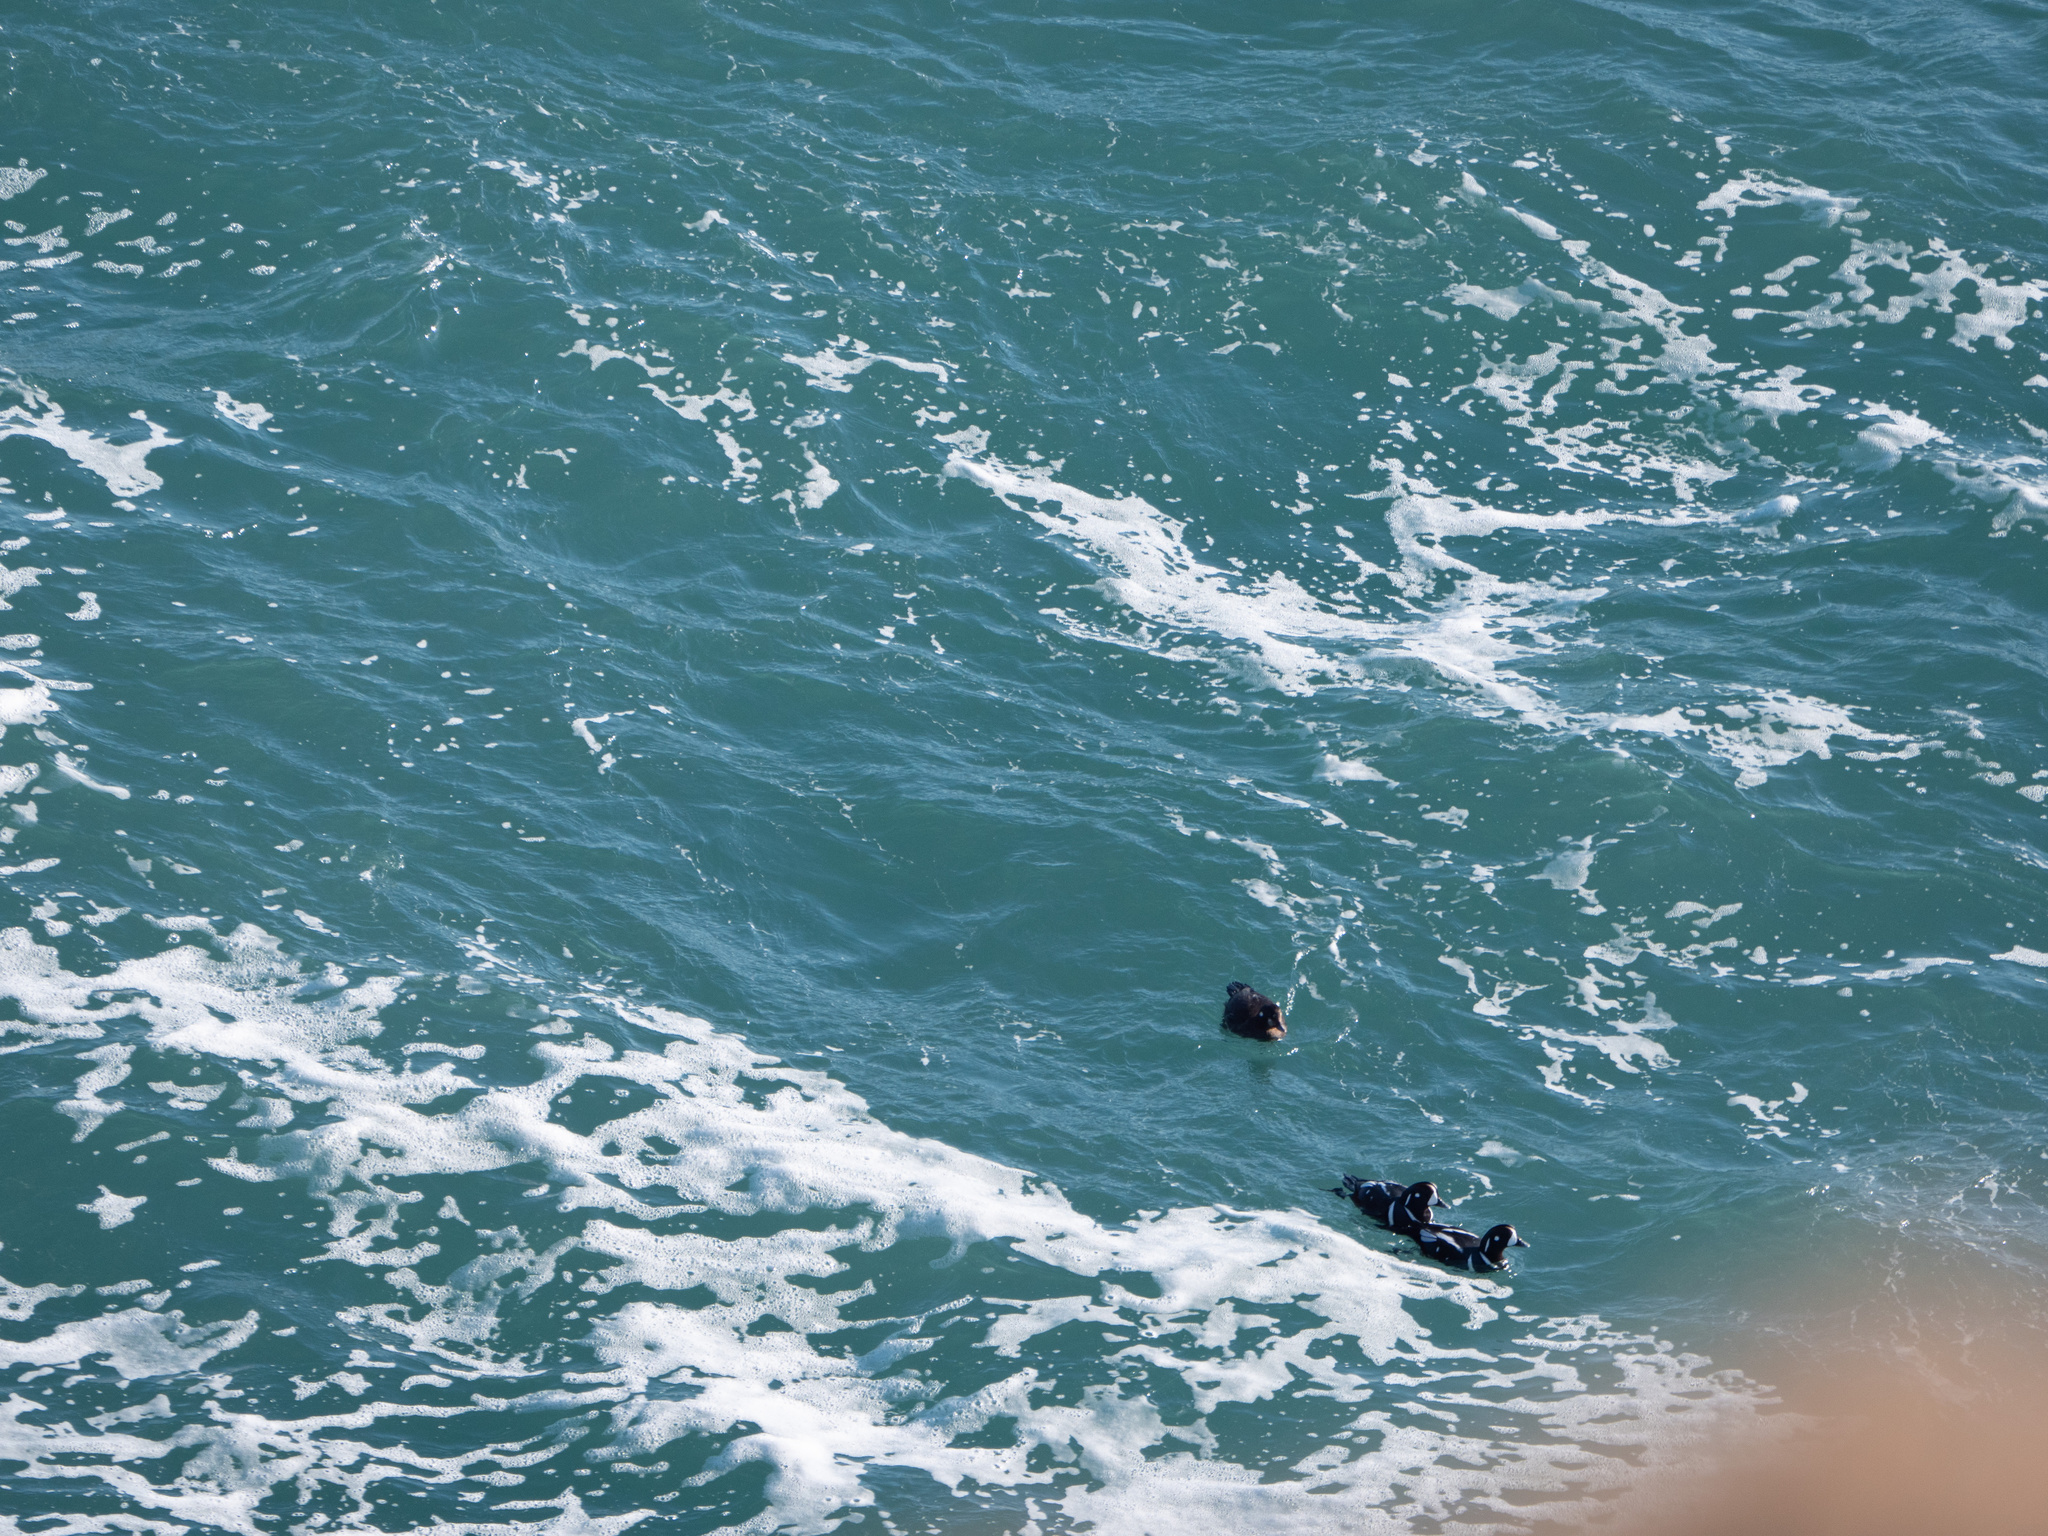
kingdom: Animalia
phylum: Chordata
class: Aves
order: Anseriformes
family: Anatidae
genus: Histrionicus
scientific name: Histrionicus histrionicus
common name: Harlequin duck
